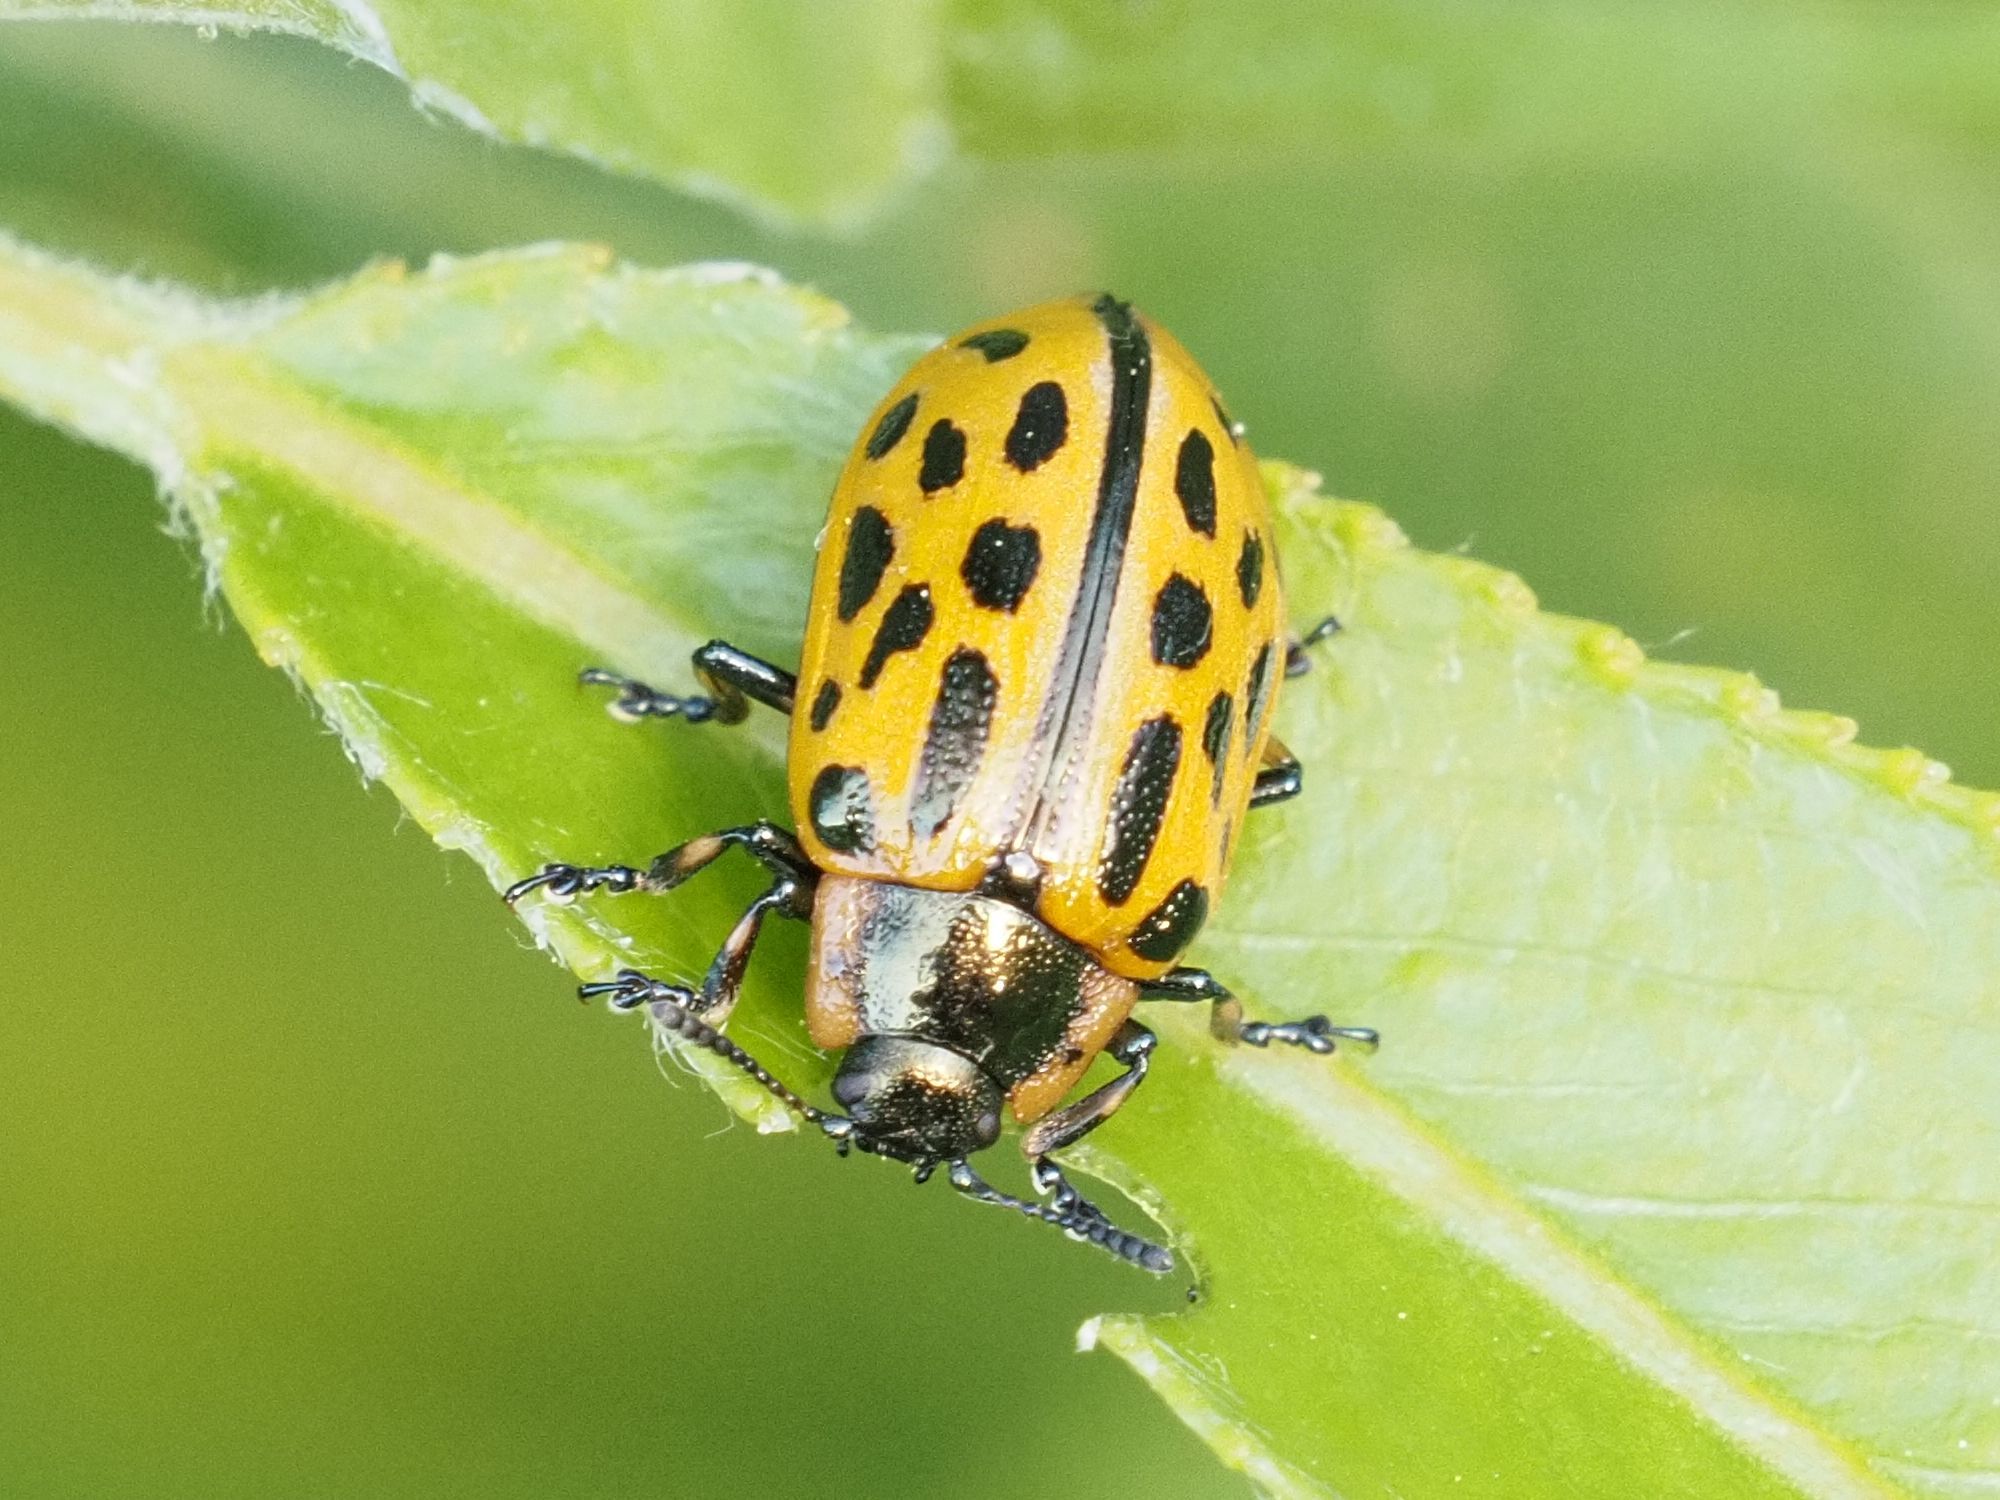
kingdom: Animalia
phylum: Arthropoda
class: Insecta
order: Coleoptera
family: Chrysomelidae
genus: Chrysomela
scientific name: Chrysomela vigintipunctata
